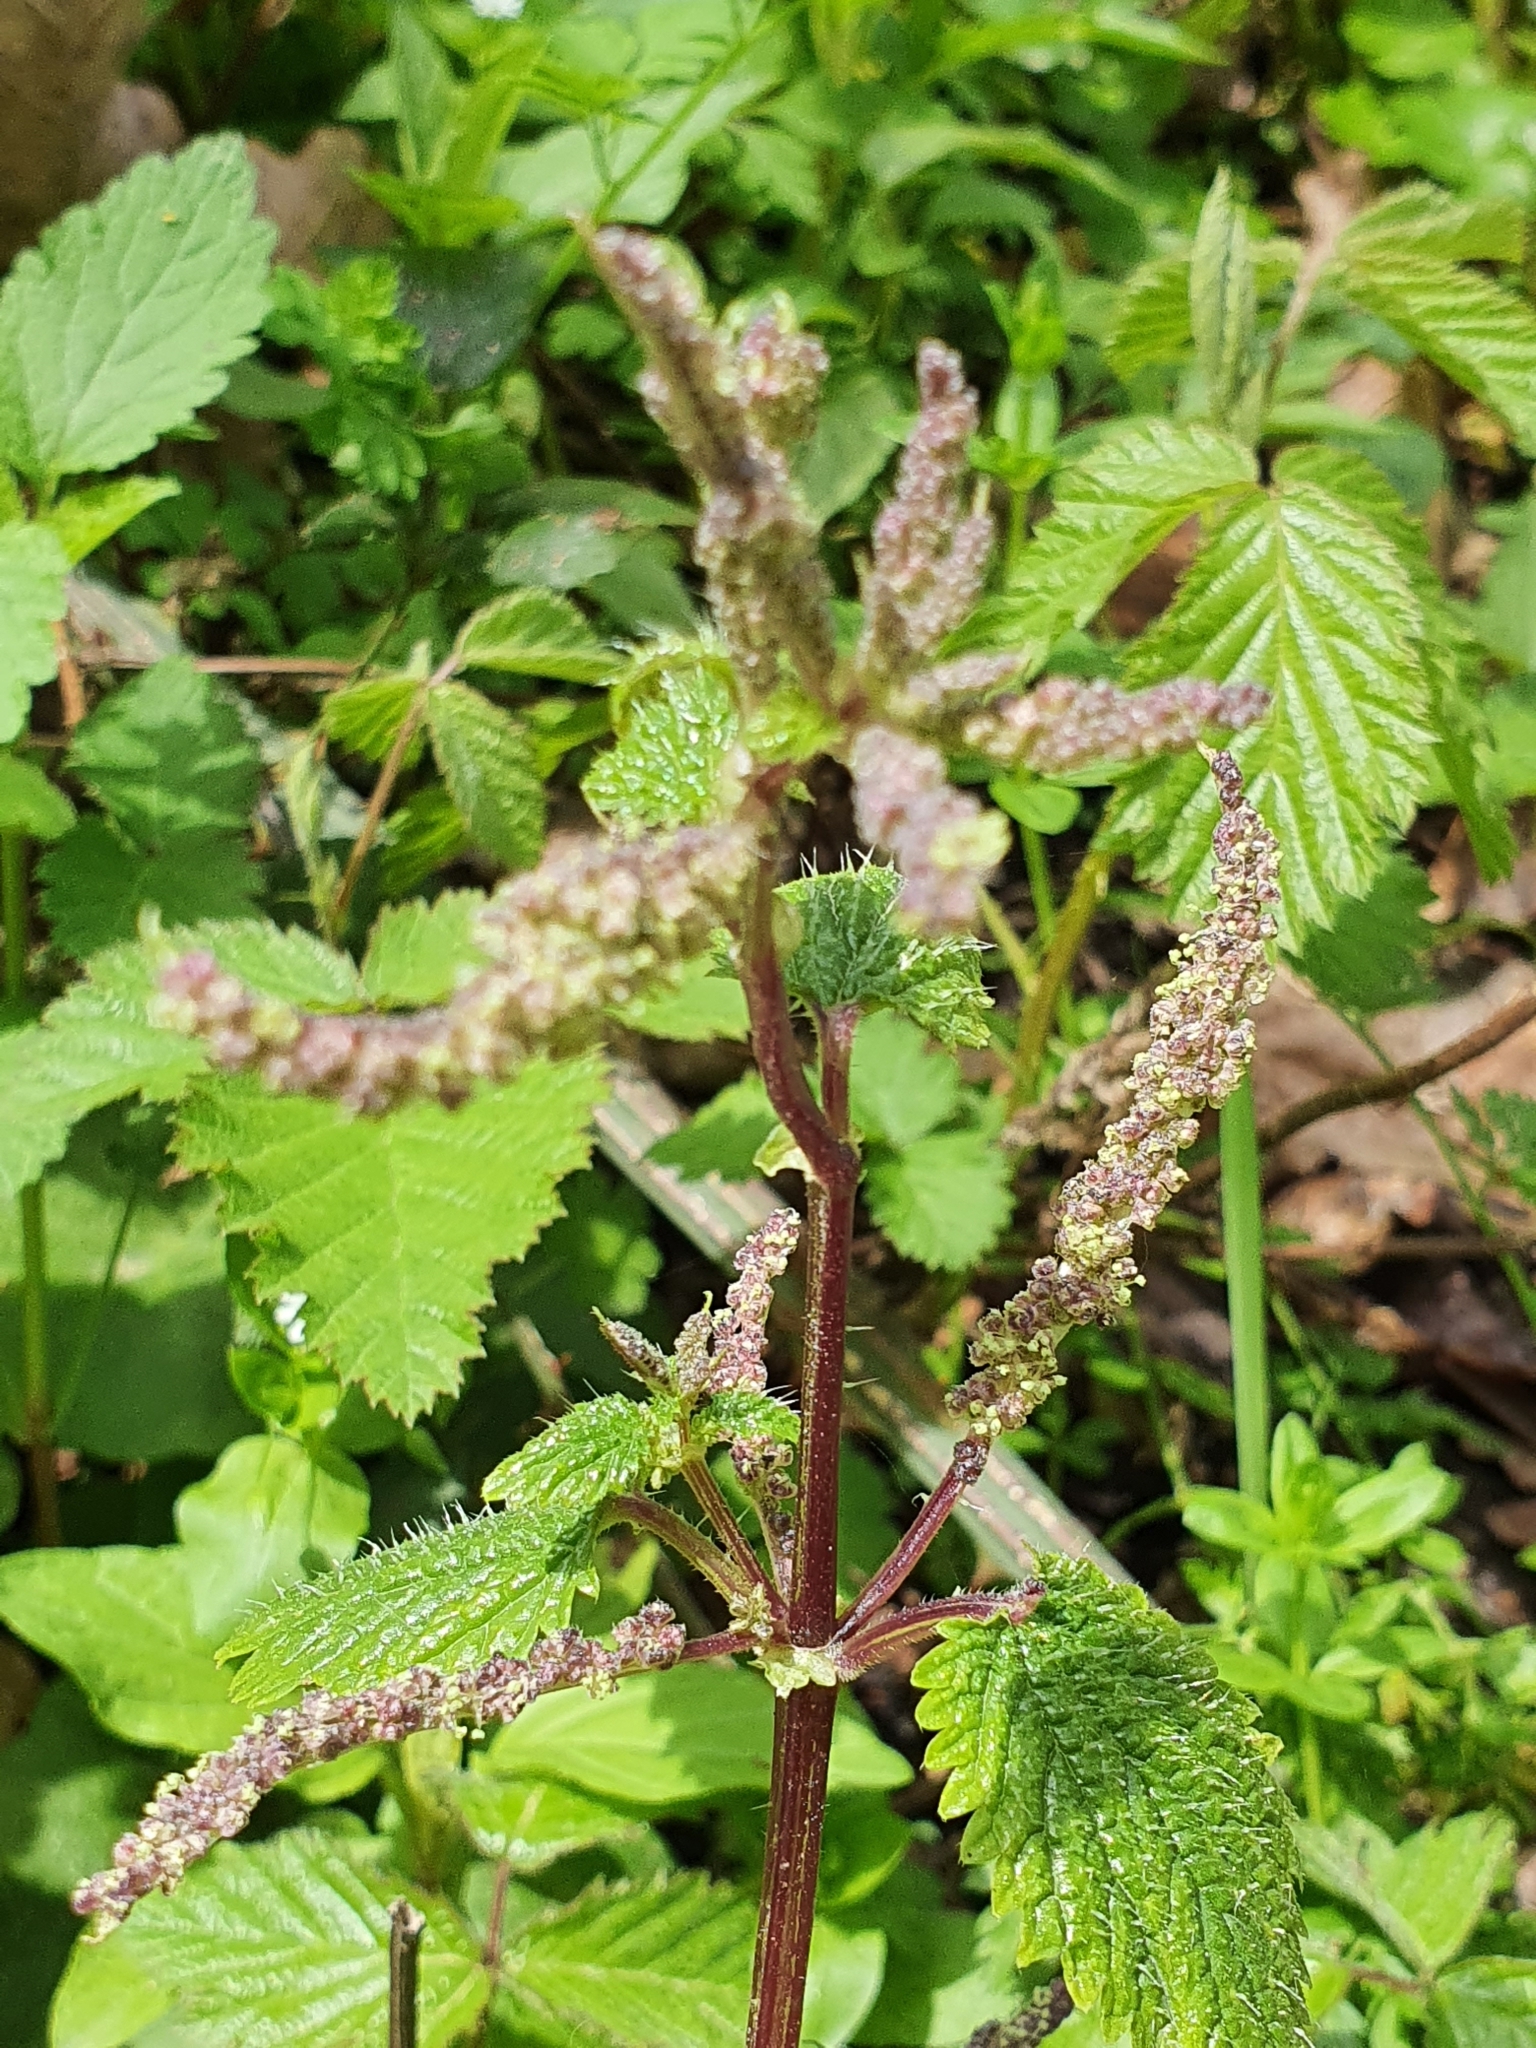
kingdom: Plantae
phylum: Tracheophyta
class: Magnoliopsida
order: Rosales
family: Urticaceae
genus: Urtica
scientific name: Urtica membranacea
